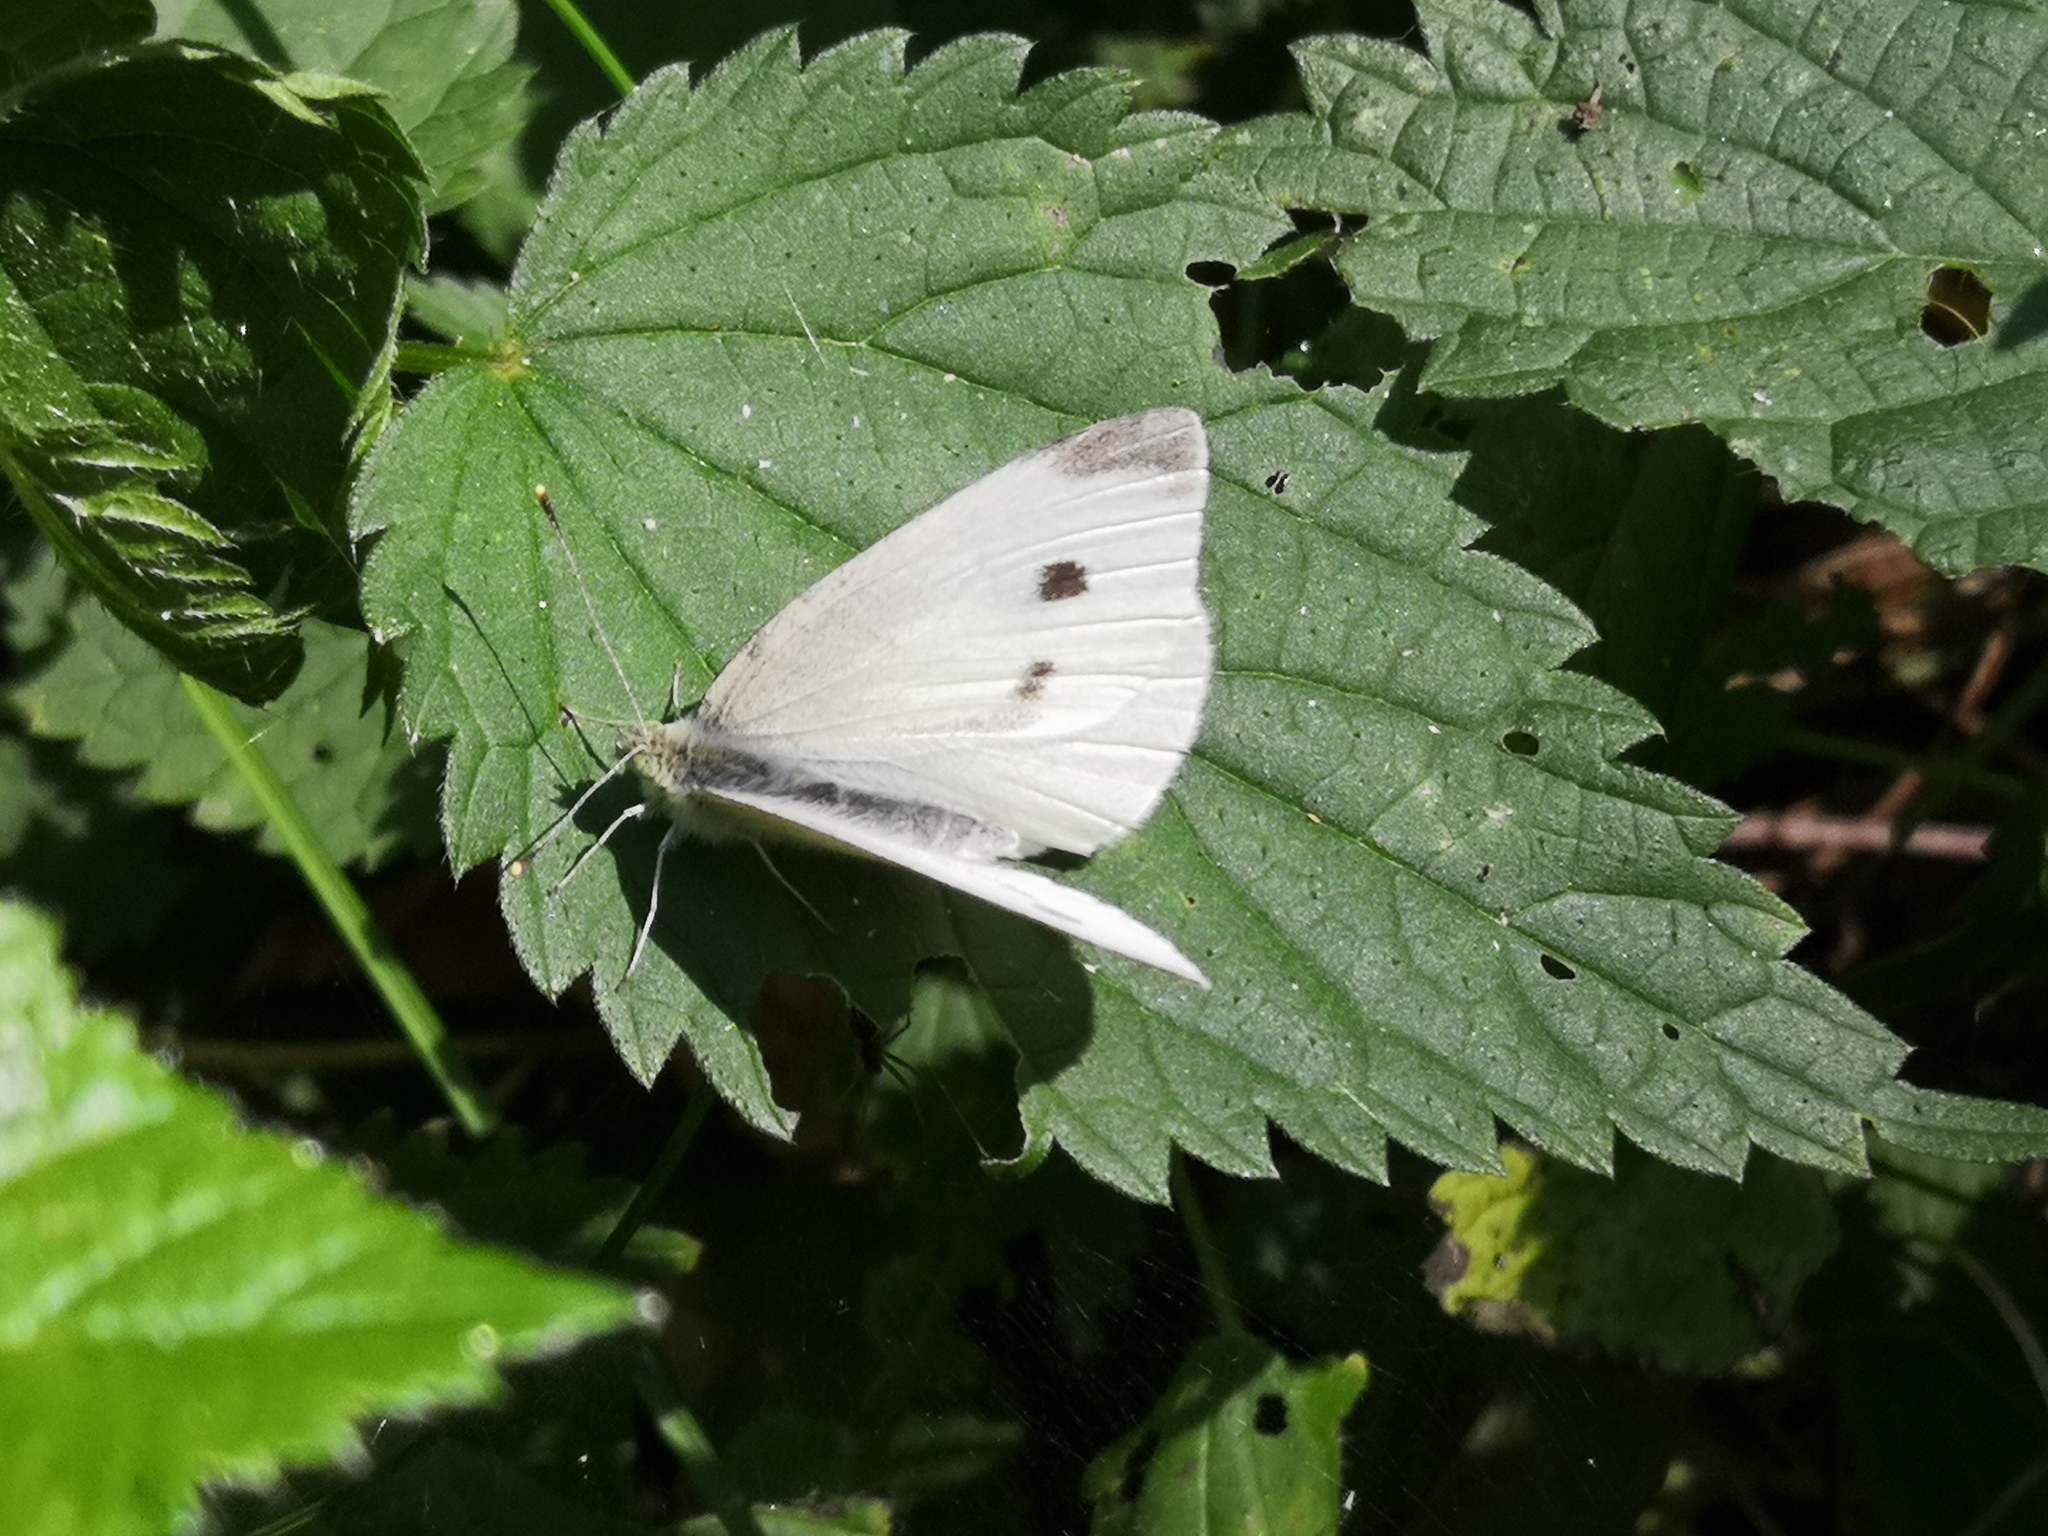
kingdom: Animalia
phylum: Arthropoda
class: Insecta
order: Lepidoptera
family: Pieridae
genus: Pieris
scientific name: Pieris rapae
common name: Small white
